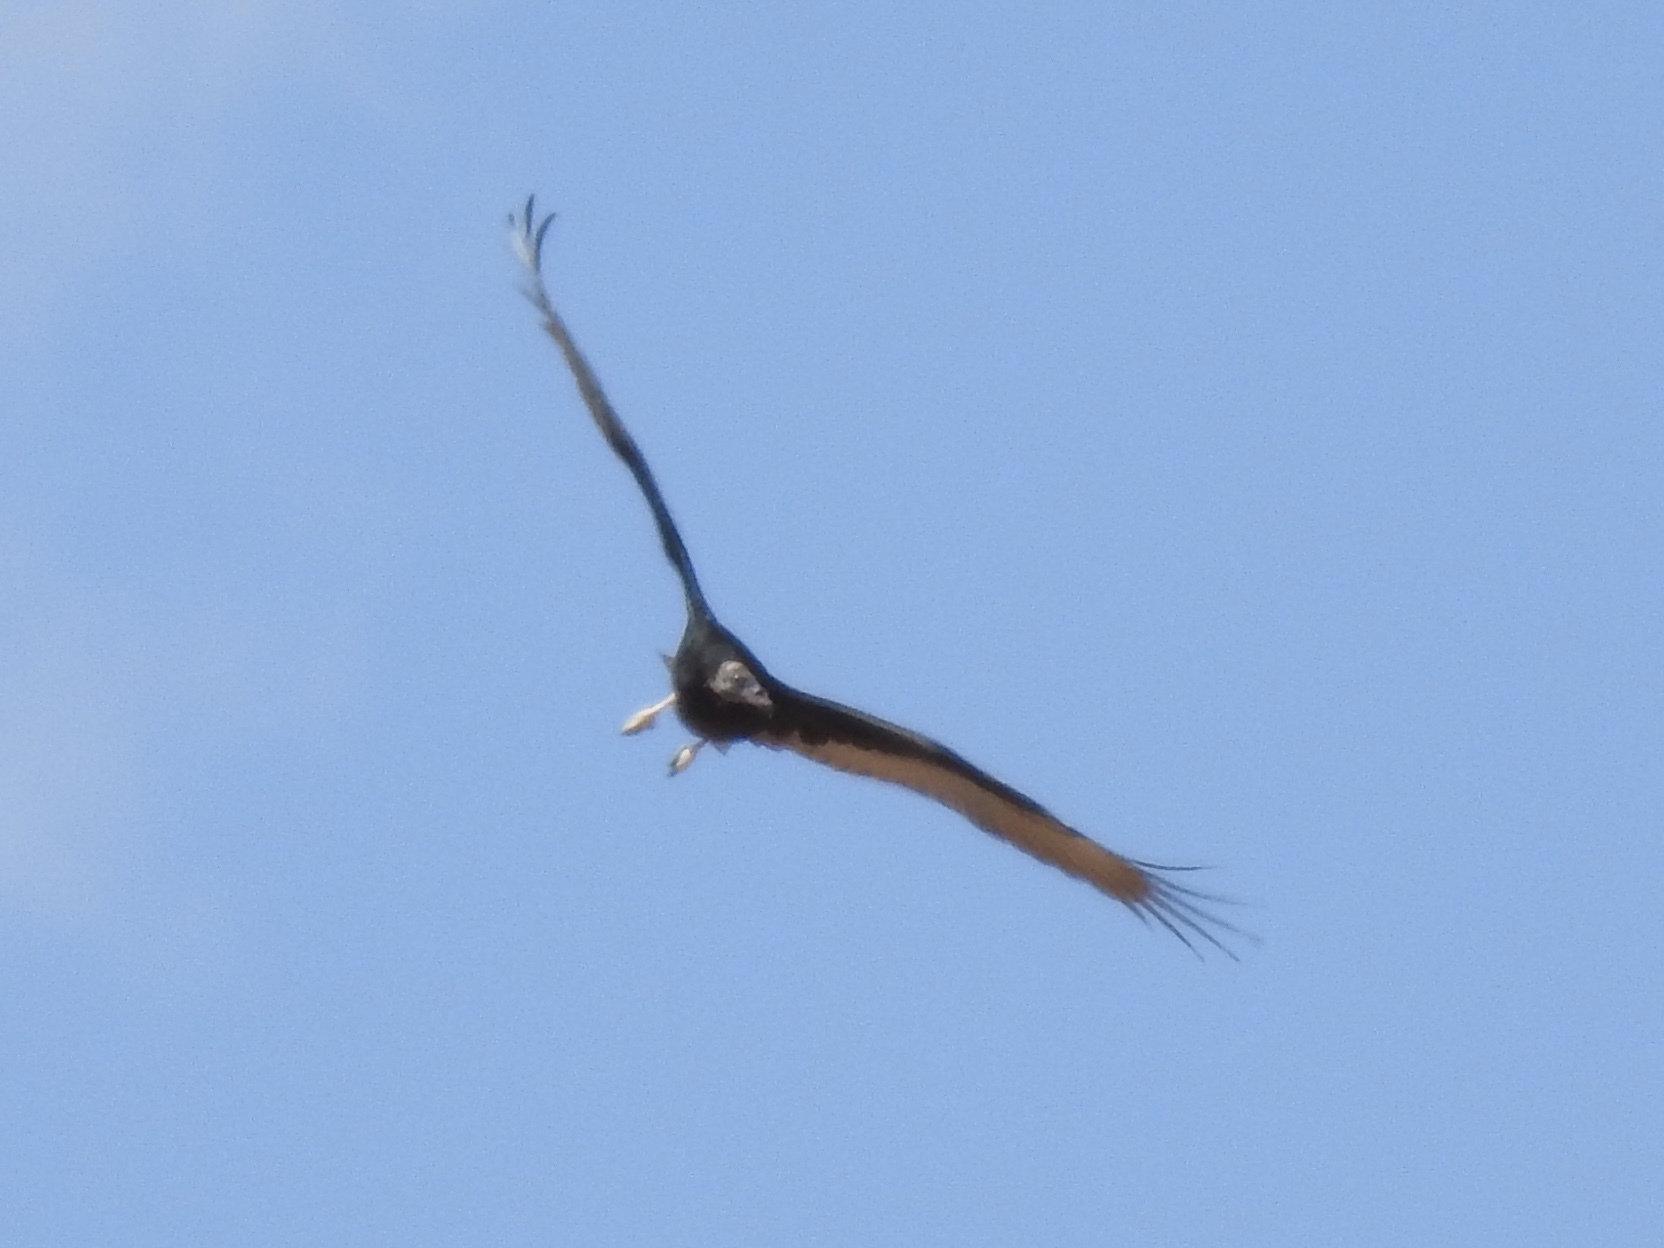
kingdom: Animalia
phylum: Chordata
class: Aves
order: Accipitriformes
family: Cathartidae
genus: Cathartes
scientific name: Cathartes aura
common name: Turkey vulture
